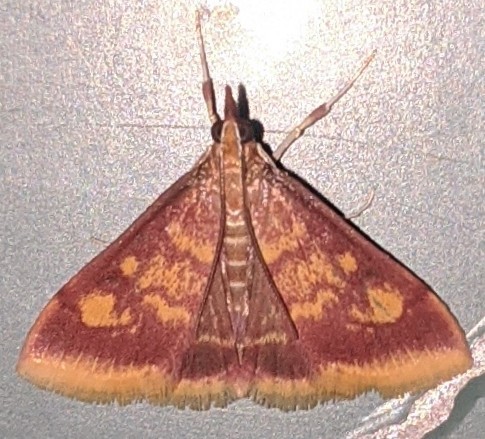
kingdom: Animalia
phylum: Arthropoda
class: Insecta
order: Lepidoptera
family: Crambidae
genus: Pyrausta
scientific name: Pyrausta acrionalis
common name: Mint-loving pyrausta moth
